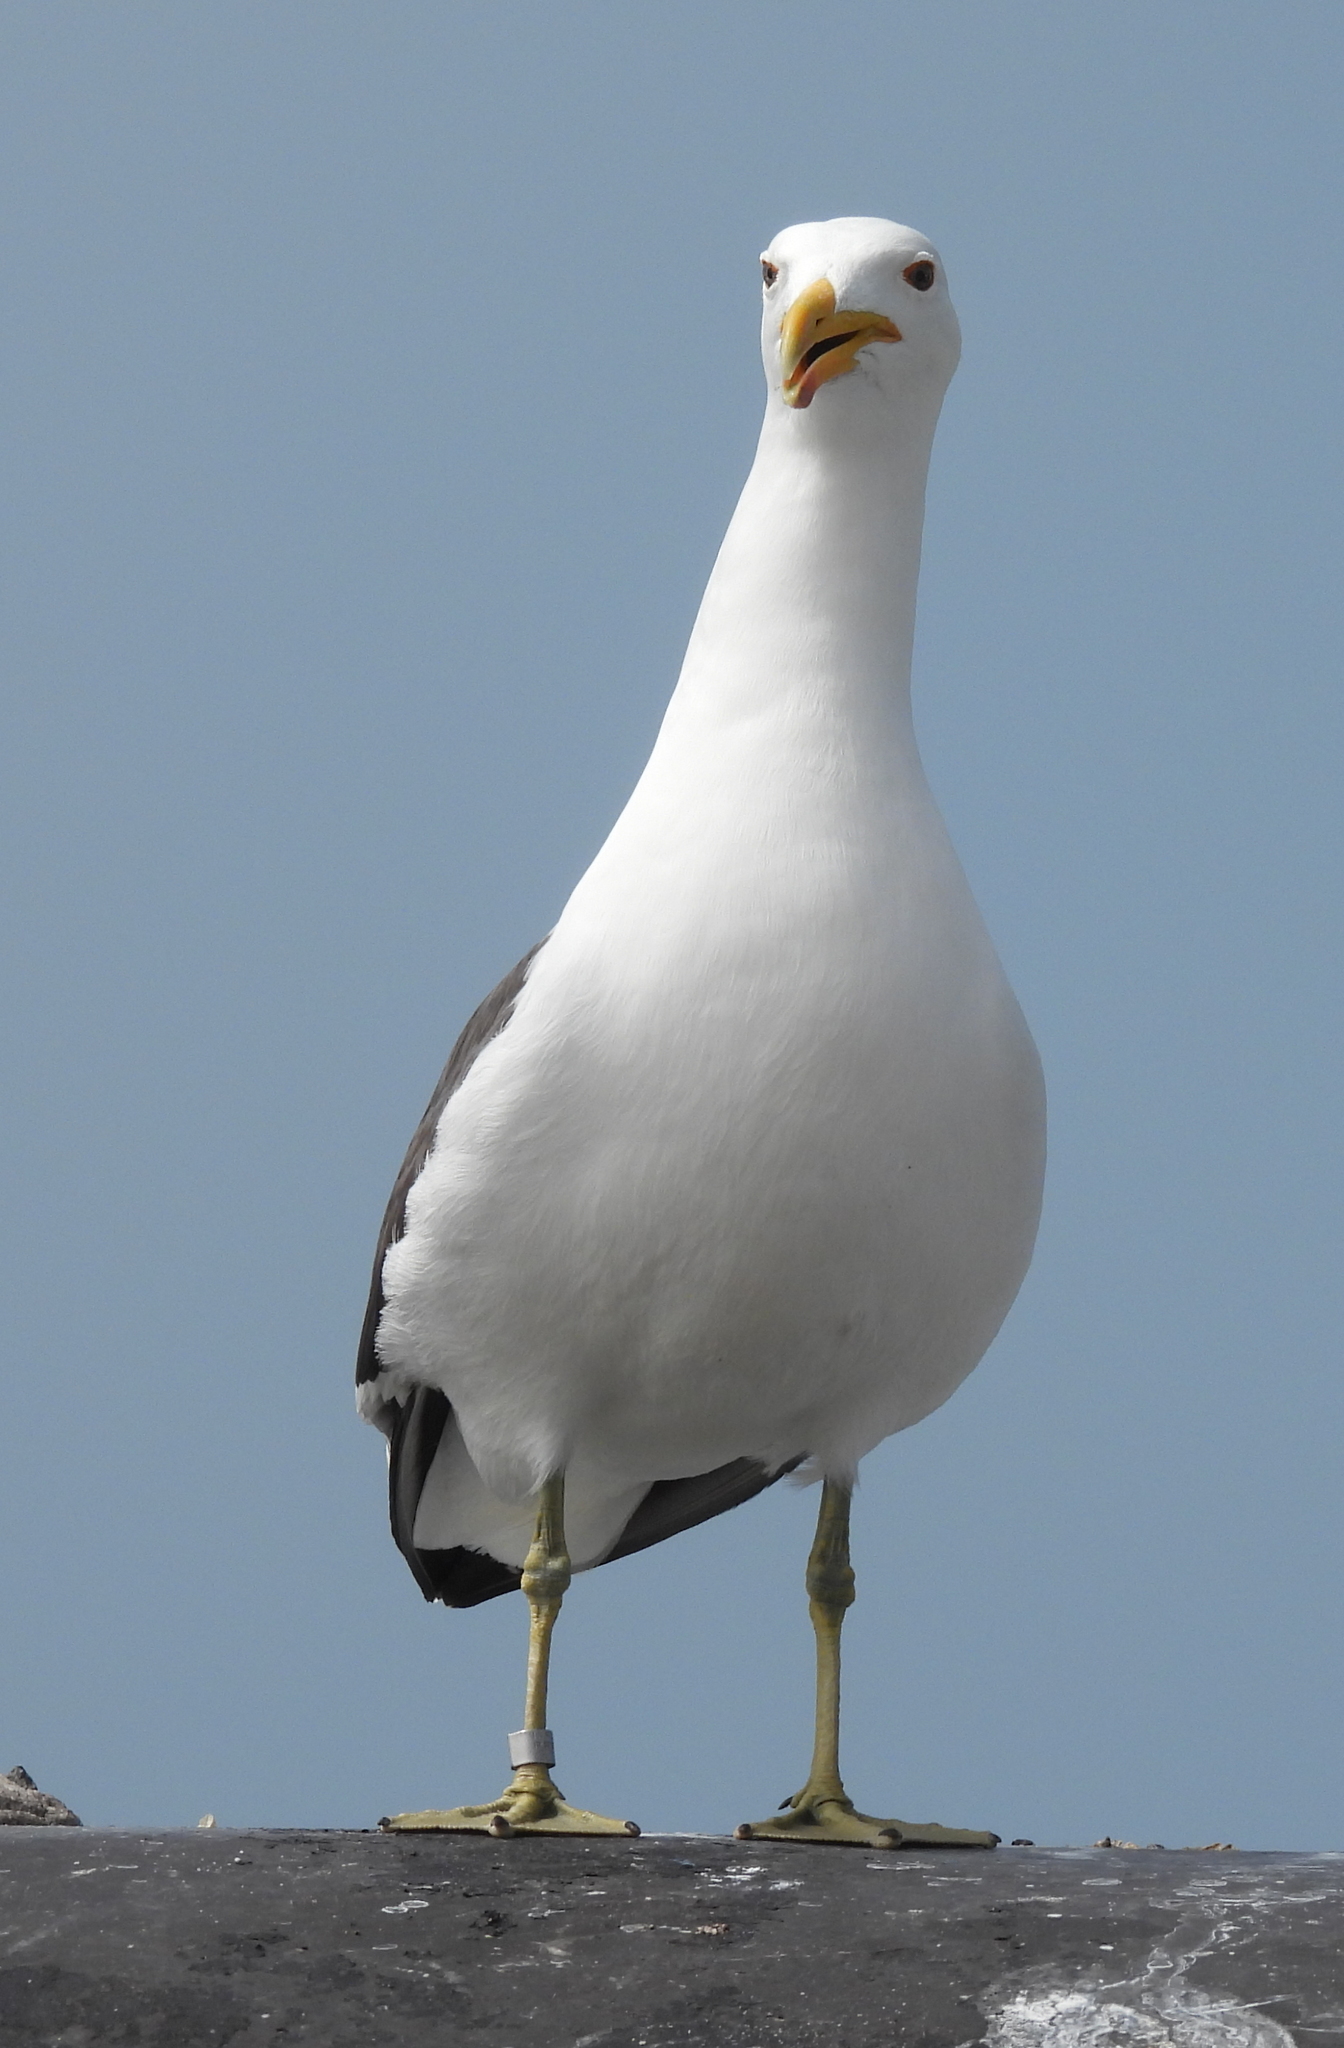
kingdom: Animalia
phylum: Chordata
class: Aves
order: Charadriiformes
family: Laridae
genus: Larus
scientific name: Larus dominicanus
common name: Kelp gull
